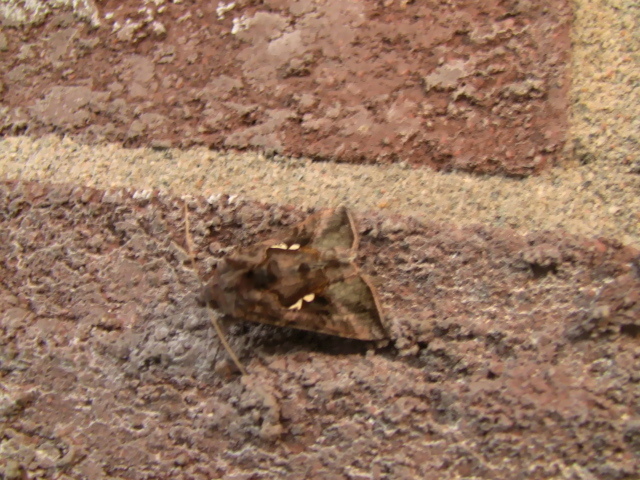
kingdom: Animalia
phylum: Arthropoda
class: Insecta
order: Lepidoptera
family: Noctuidae
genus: Autographa
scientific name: Autographa precationis
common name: Common looper moth
